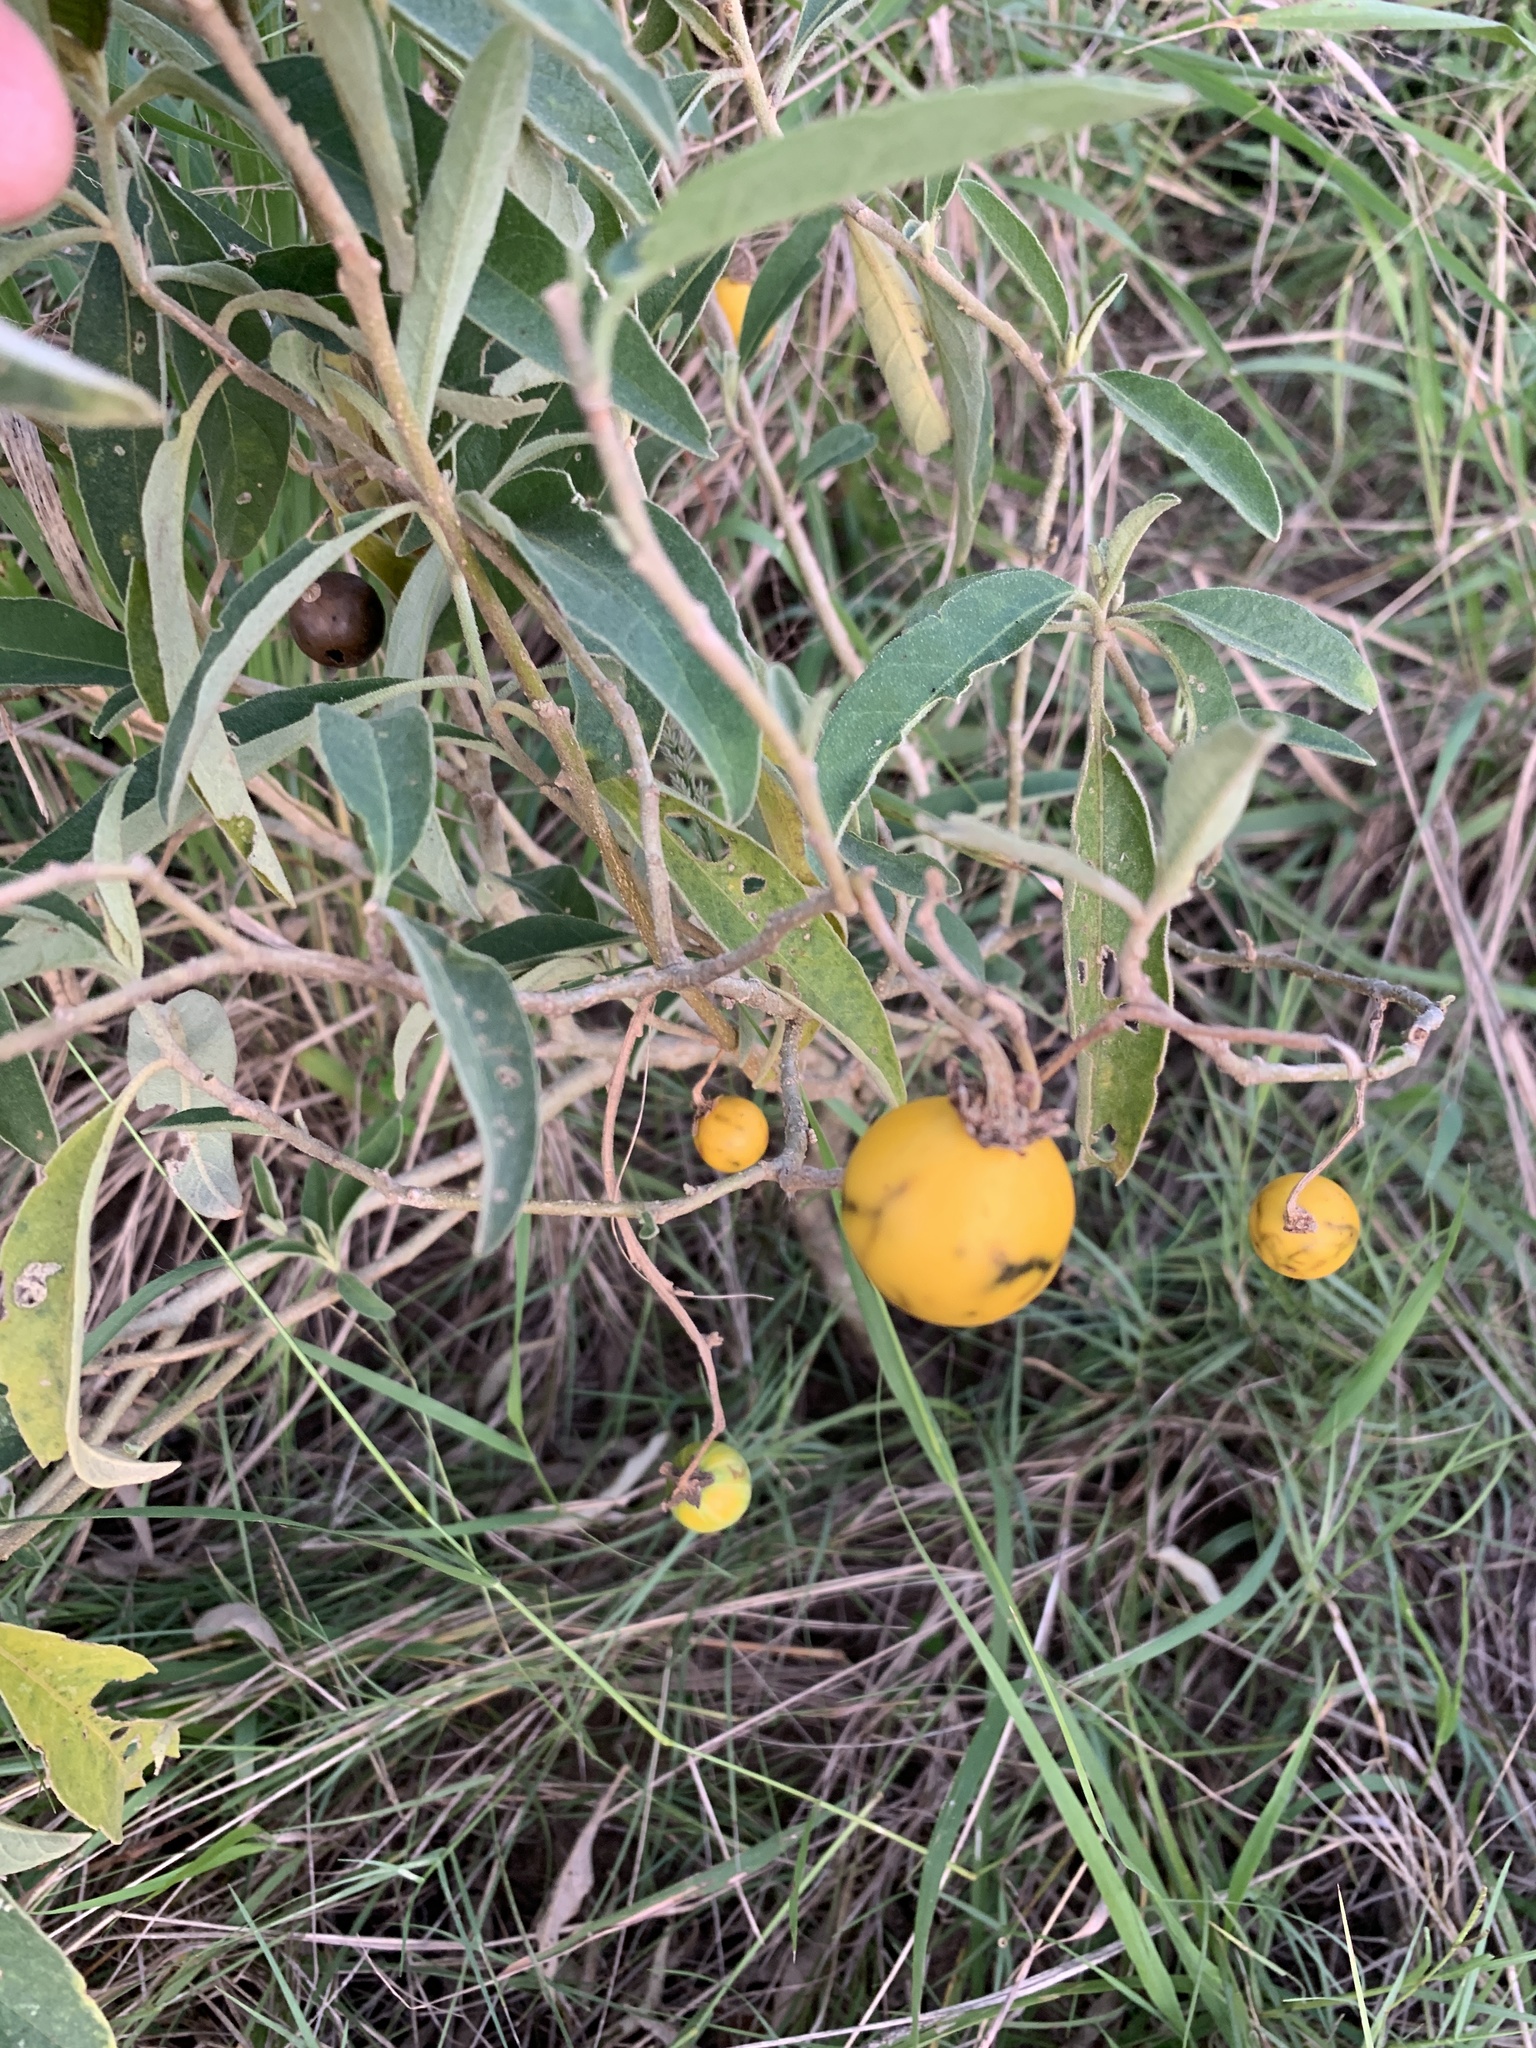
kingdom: Plantae
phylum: Tracheophyta
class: Magnoliopsida
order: Solanales
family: Solanaceae
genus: Solanum
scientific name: Solanum campylacanthum
